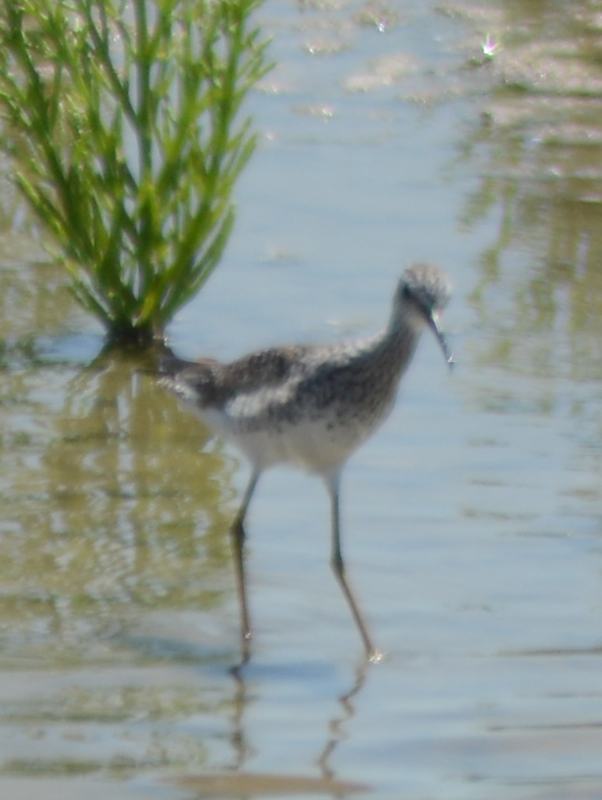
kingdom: Animalia
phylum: Chordata
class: Aves
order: Charadriiformes
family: Scolopacidae
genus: Tringa
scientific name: Tringa semipalmata
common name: Willet
